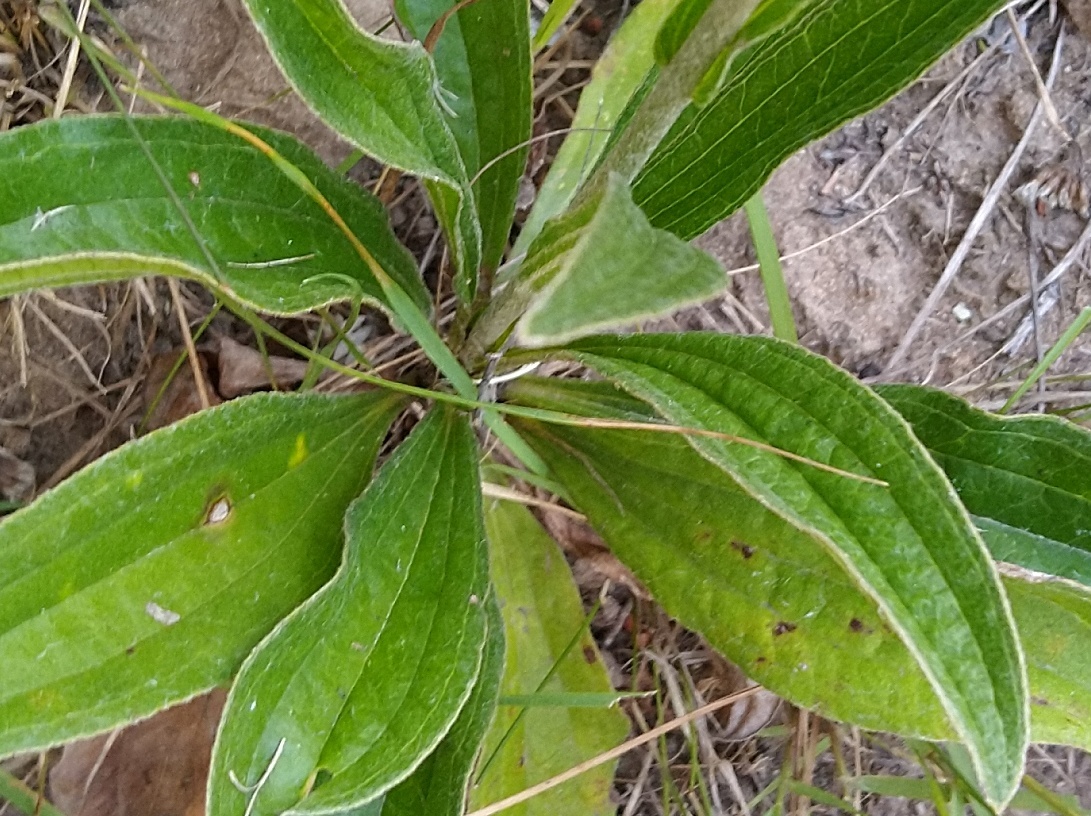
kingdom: Plantae
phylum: Tracheophyta
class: Magnoliopsida
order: Asterales
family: Asteraceae
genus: Helichrysum
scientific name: Helichrysum nudifolium
